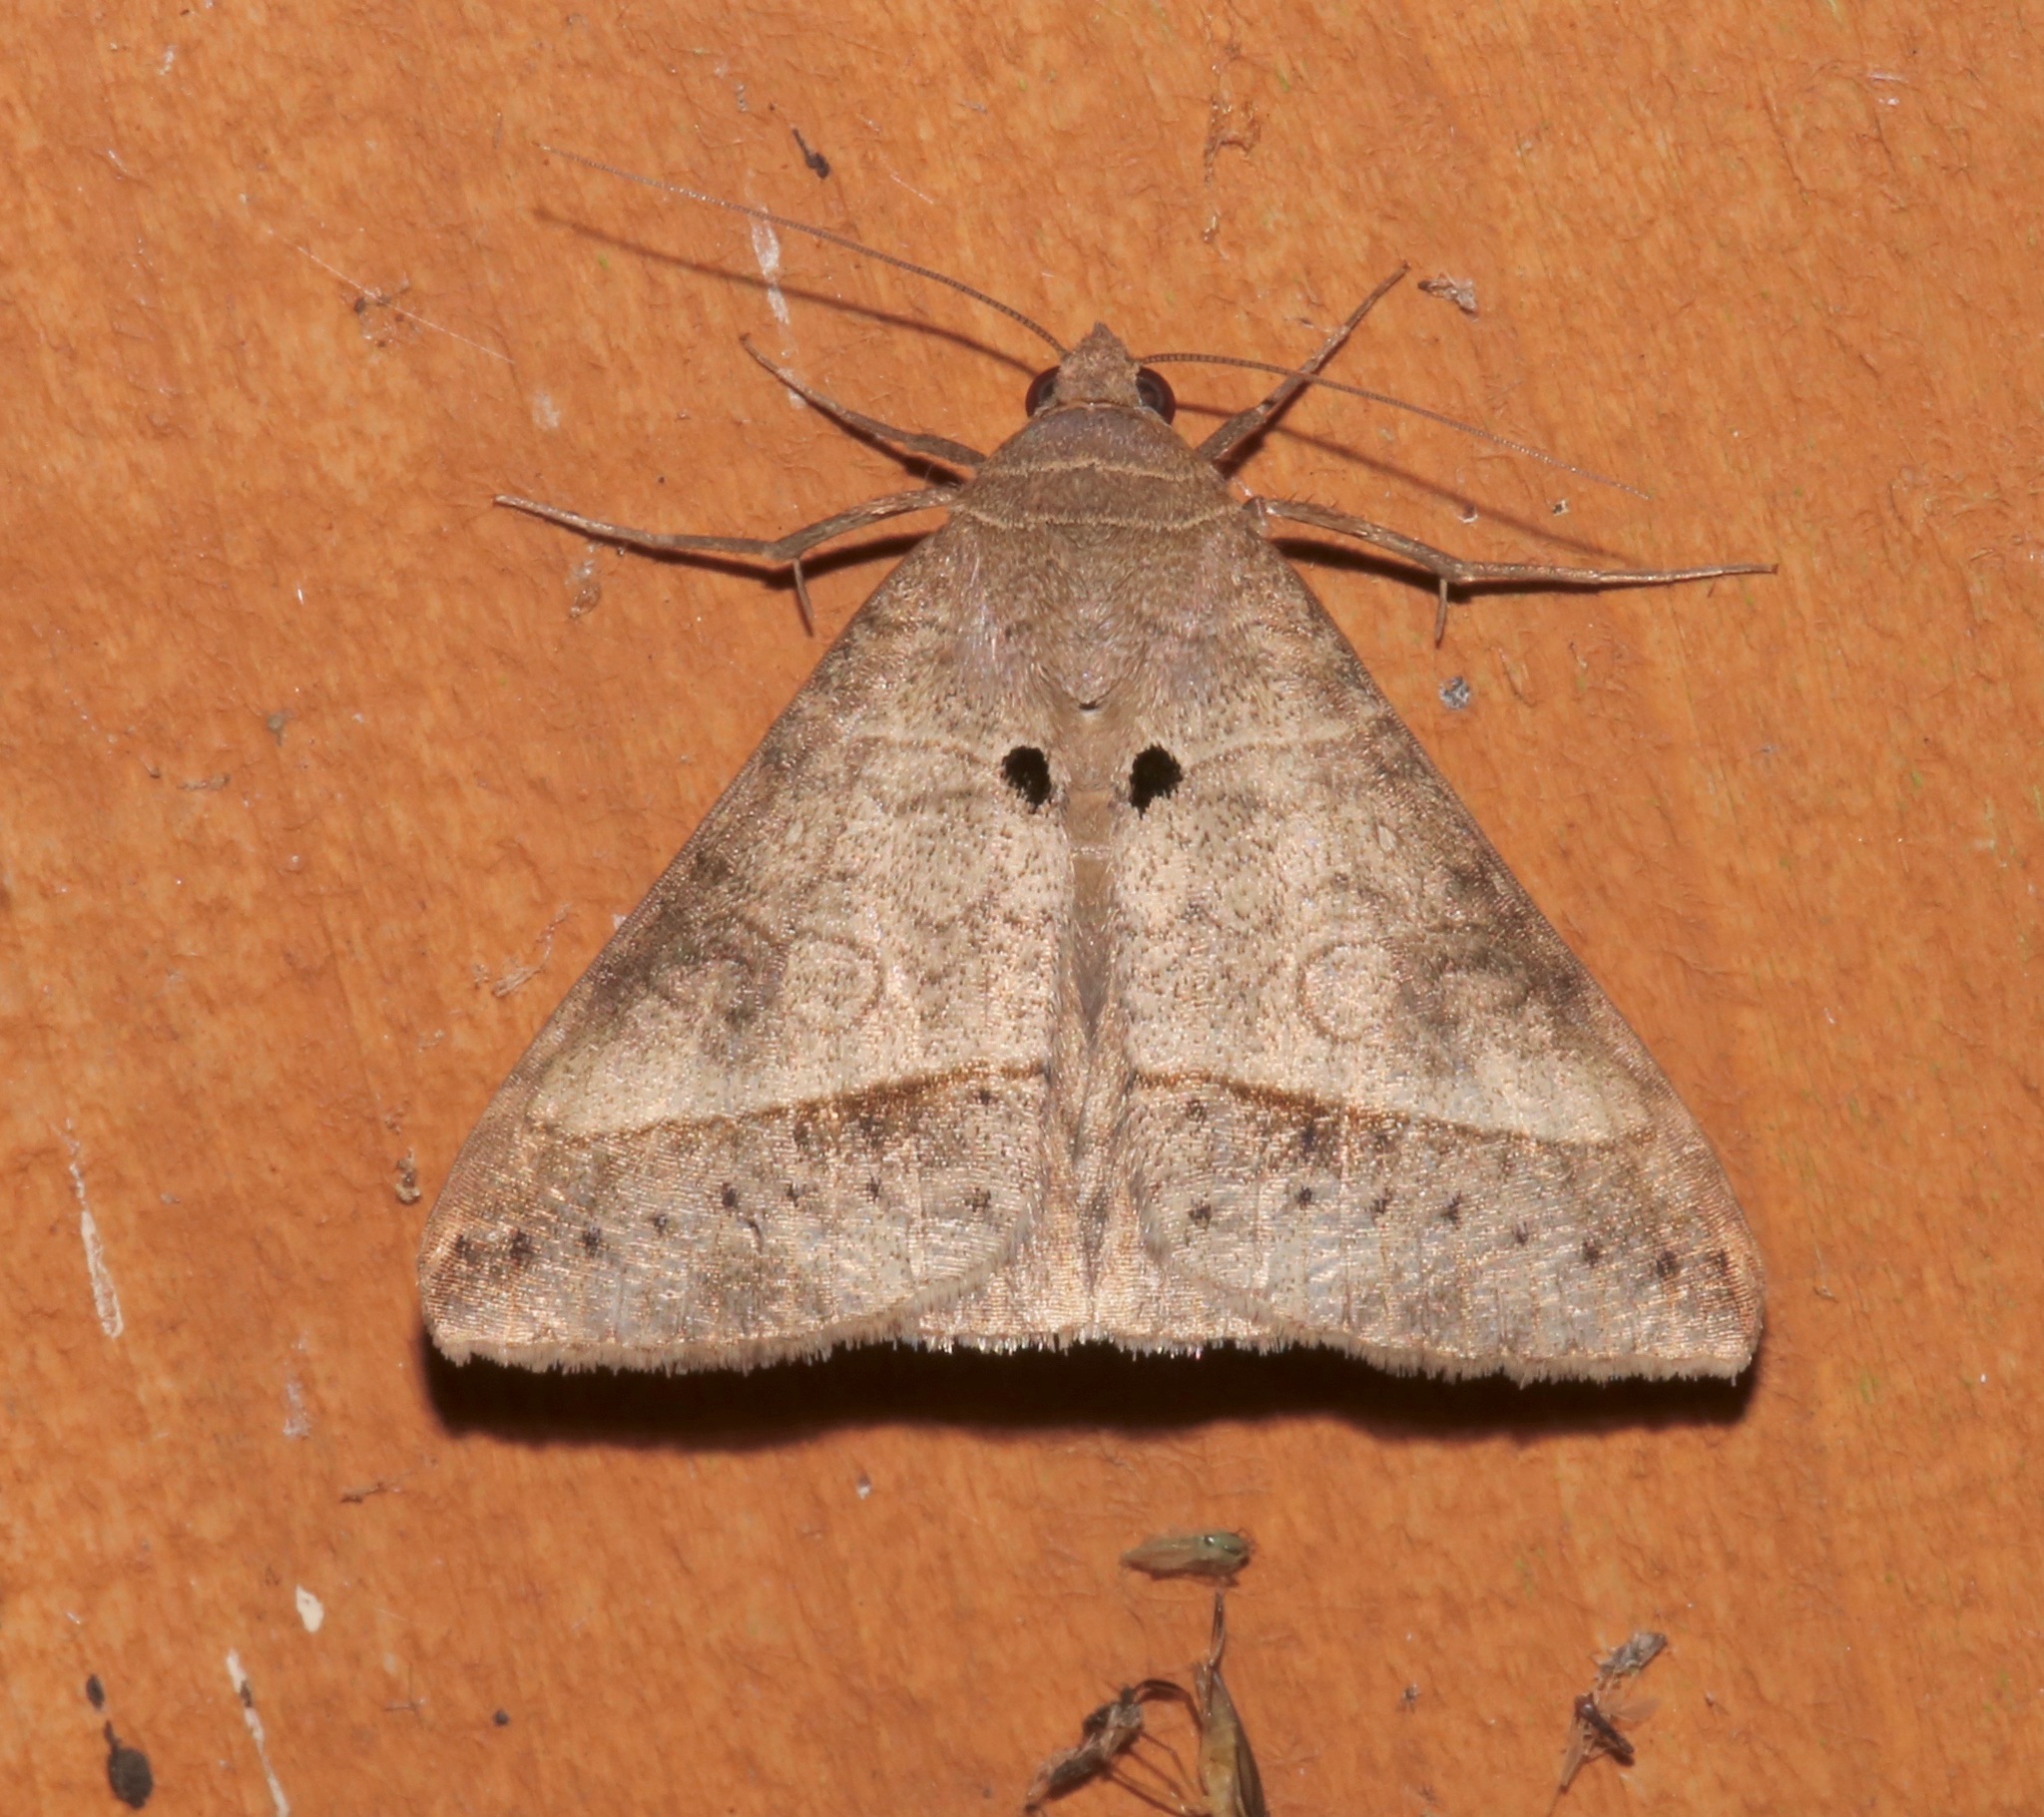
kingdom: Animalia
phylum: Arthropoda
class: Insecta
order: Lepidoptera
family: Erebidae
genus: Mocis
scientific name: Mocis latipes
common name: Striped grass looper
